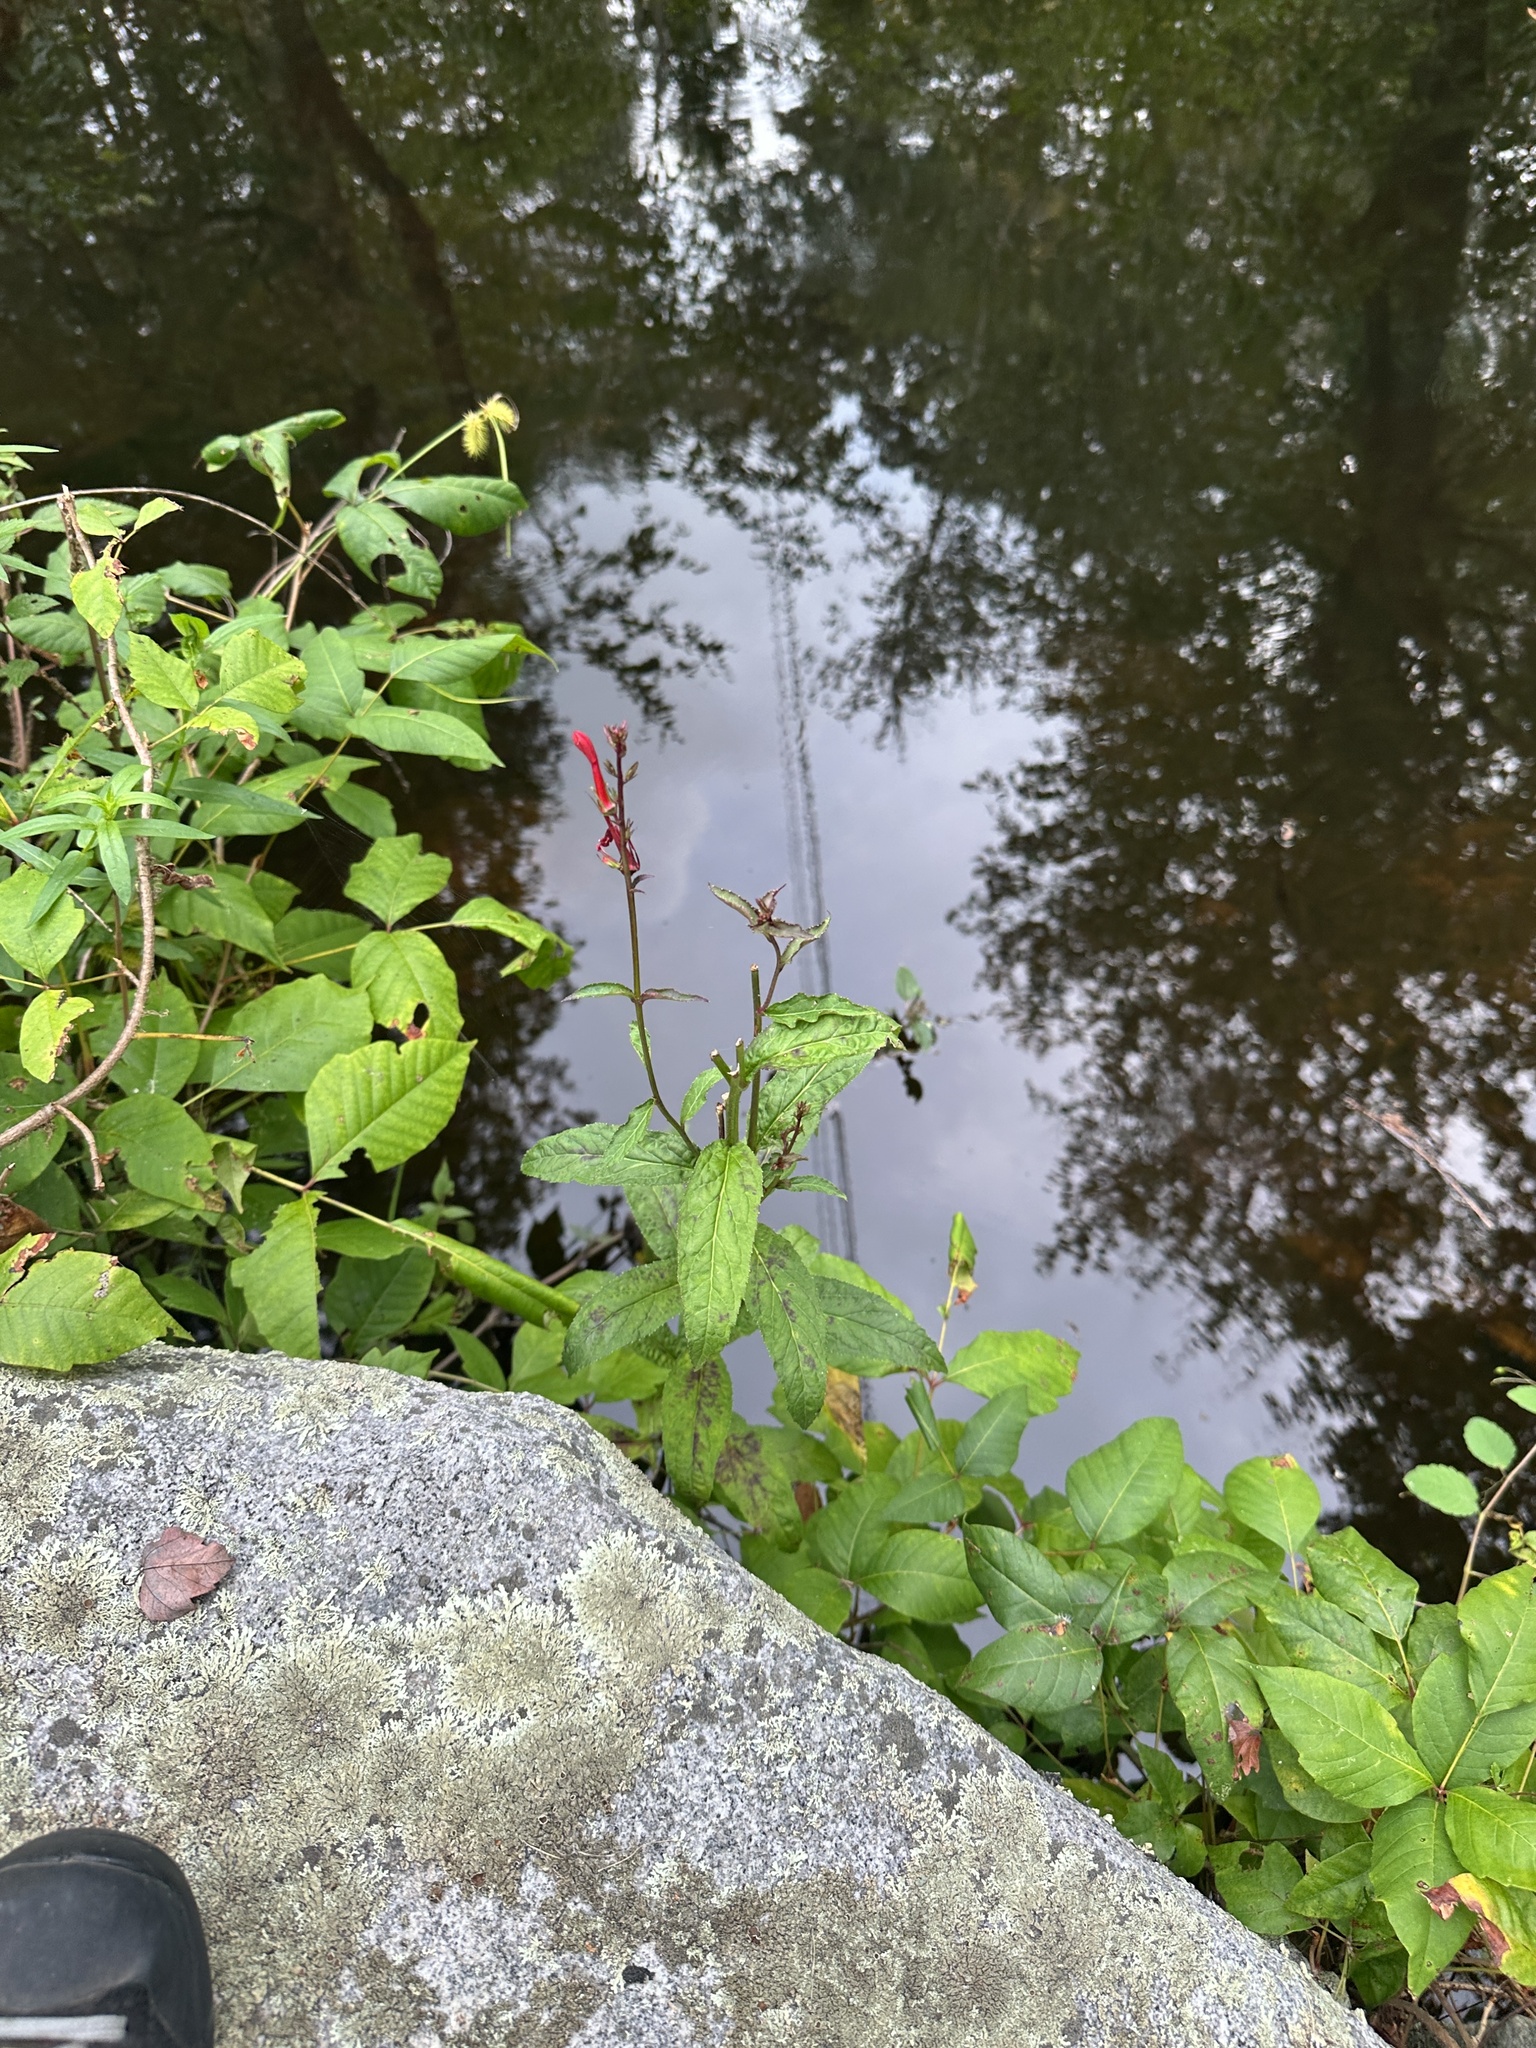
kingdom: Plantae
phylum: Tracheophyta
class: Magnoliopsida
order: Asterales
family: Campanulaceae
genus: Lobelia
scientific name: Lobelia cardinalis
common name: Cardinal flower
